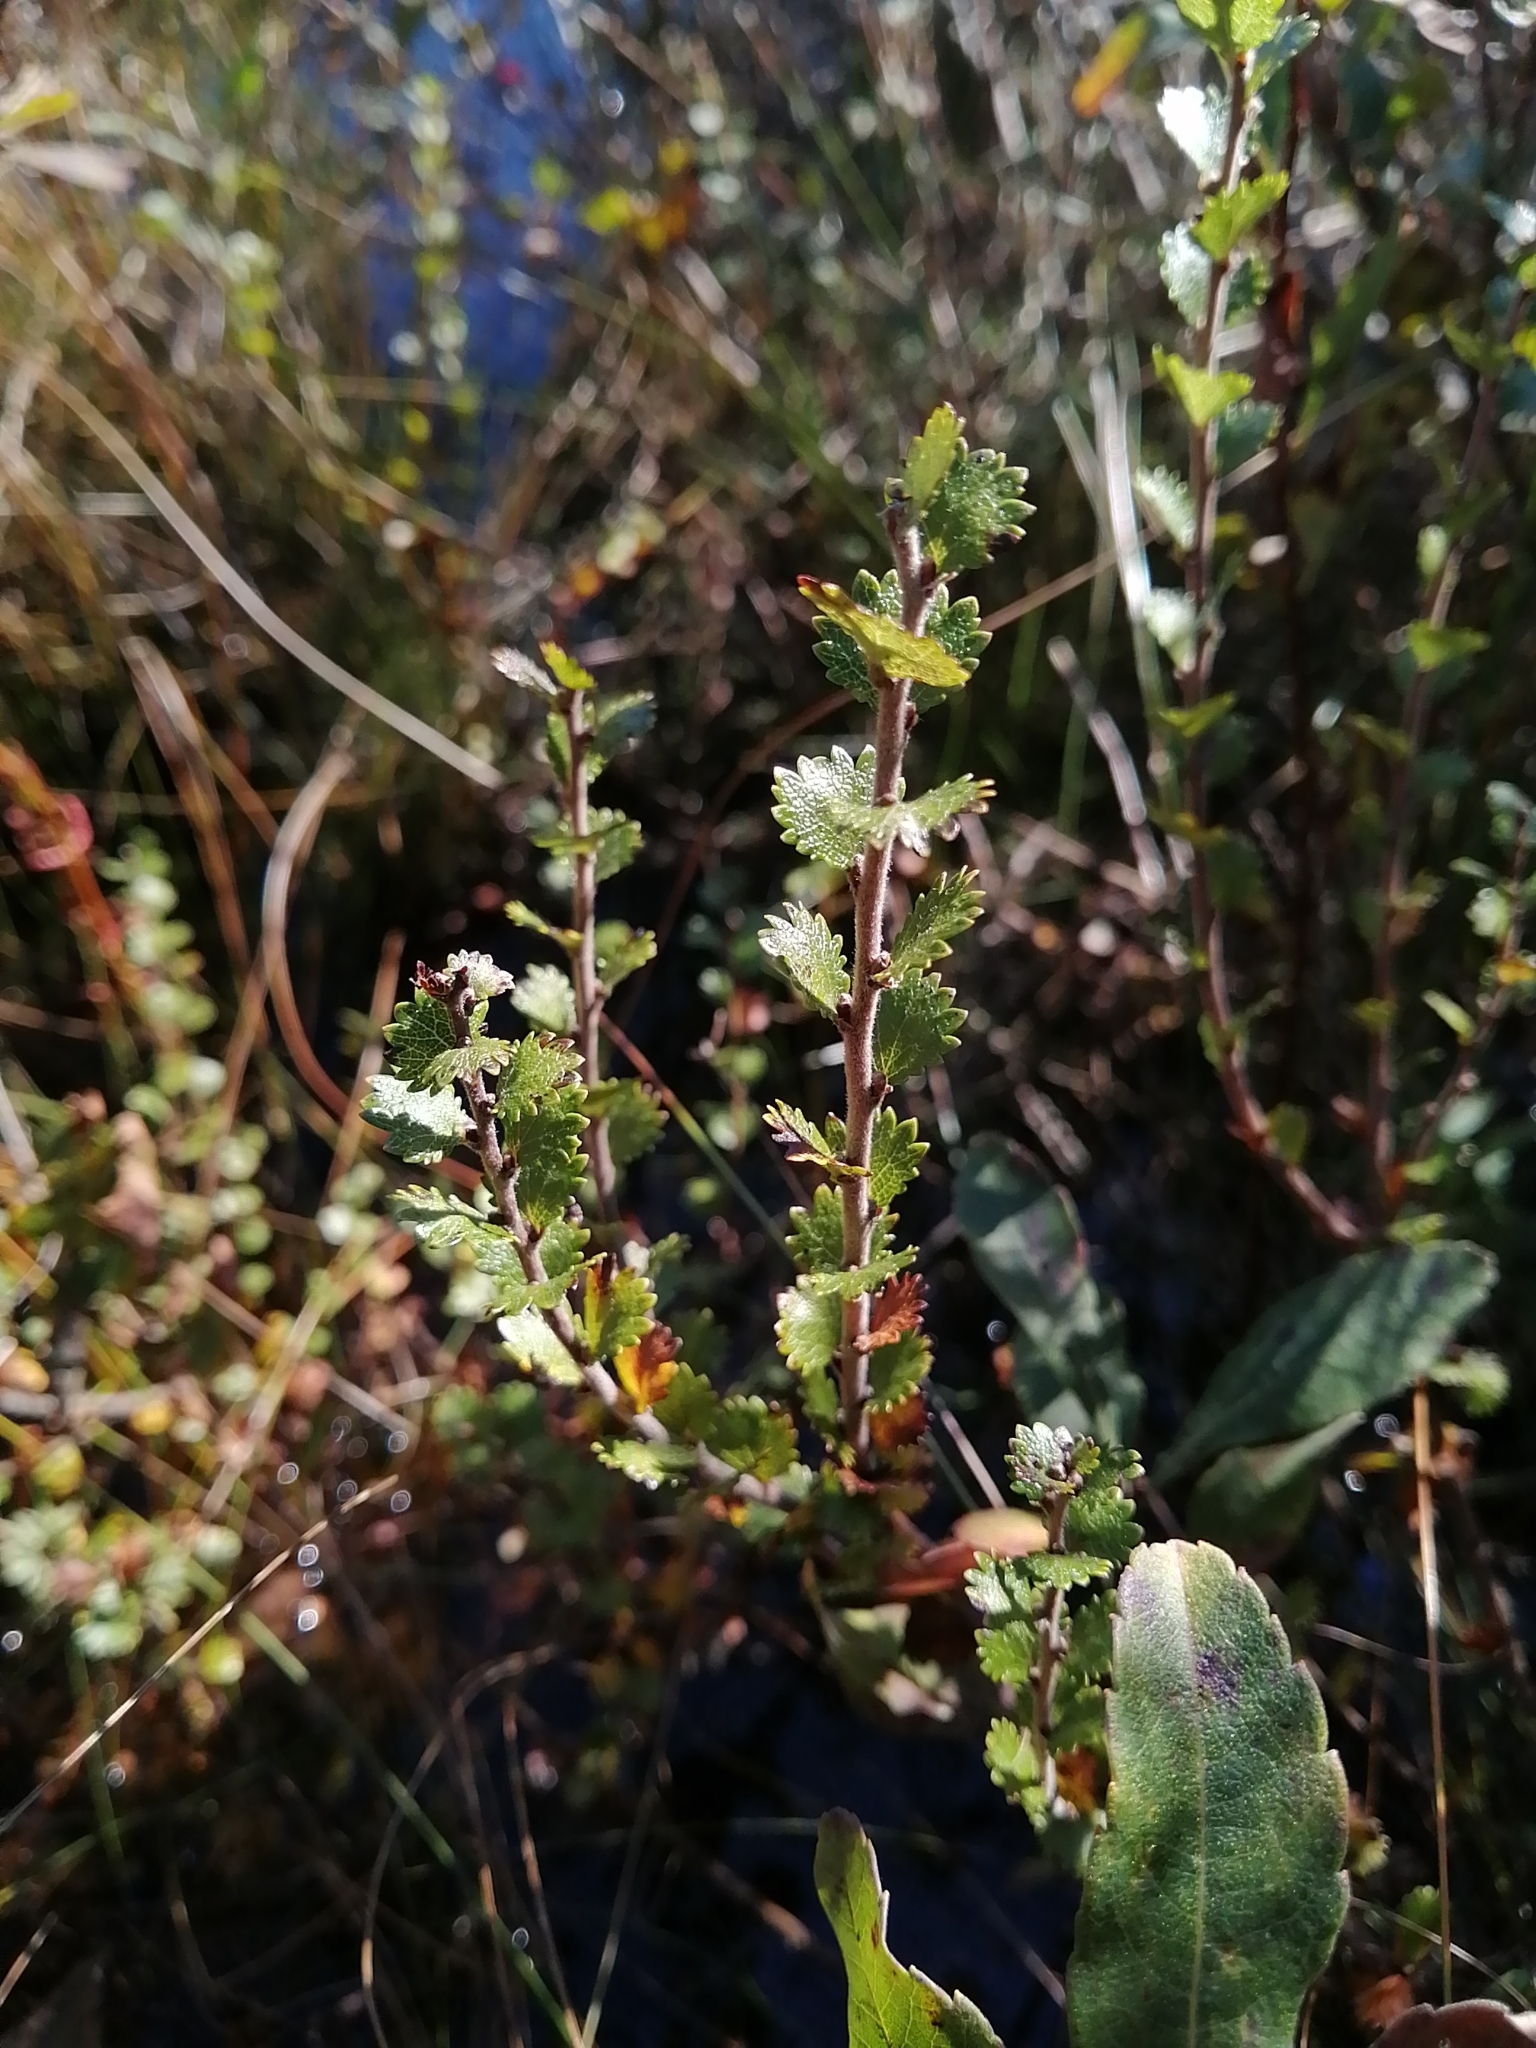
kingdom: Plantae
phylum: Tracheophyta
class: Magnoliopsida
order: Fagales
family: Betulaceae
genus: Betula
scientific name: Betula michauxii
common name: Newfoundland dwarf birch
